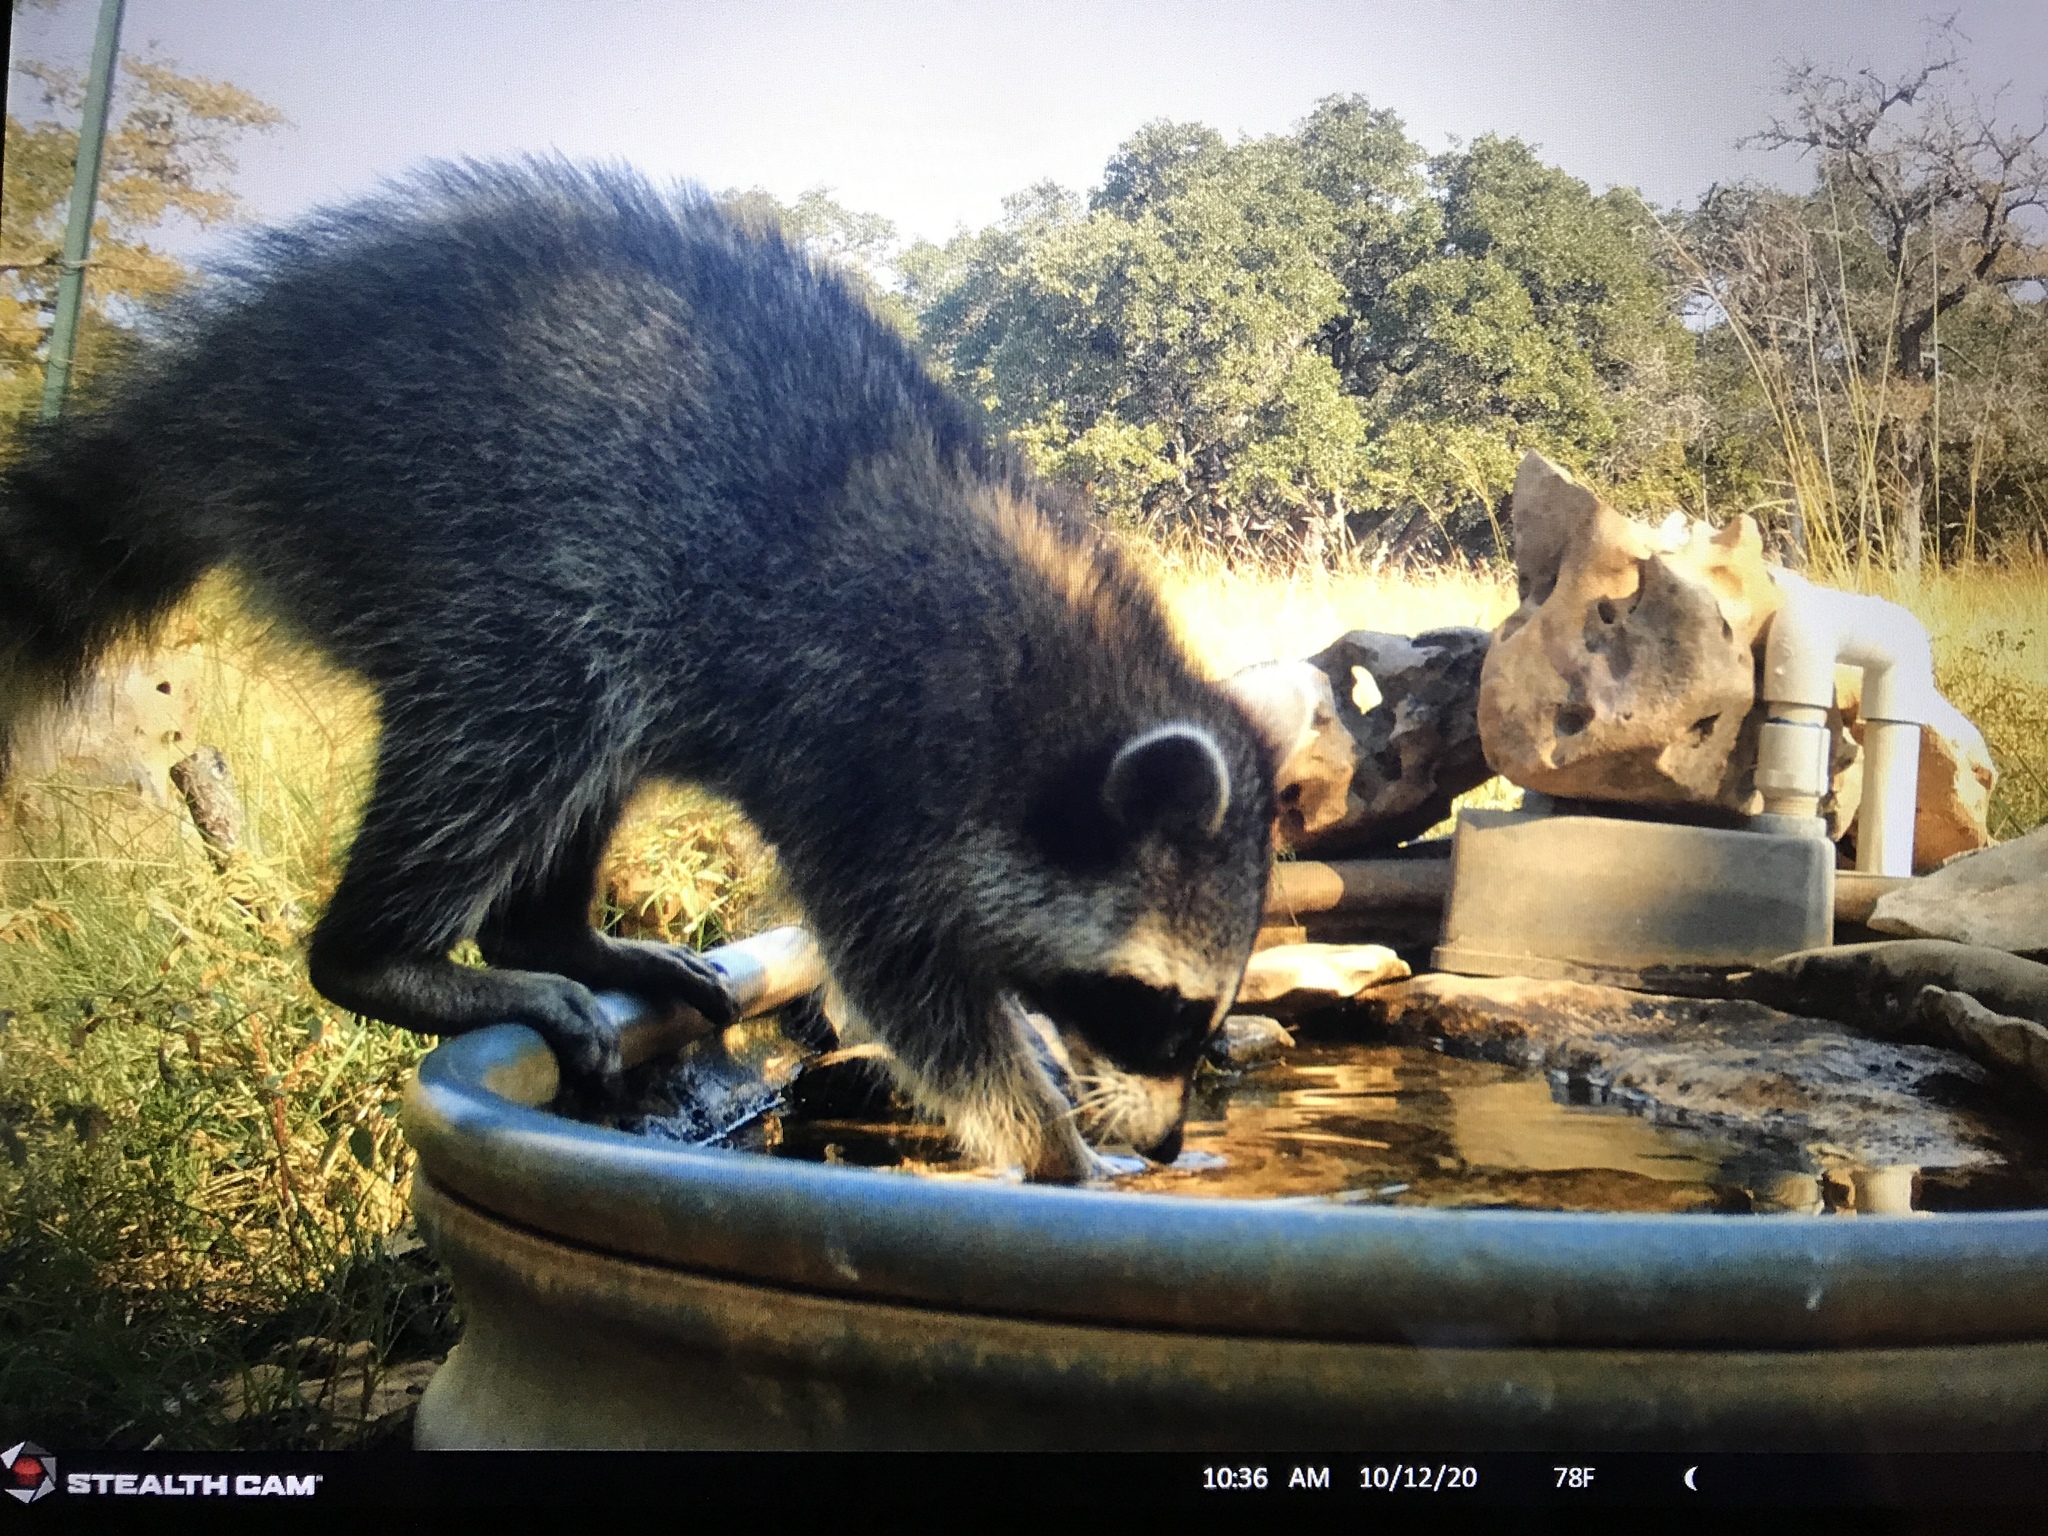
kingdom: Animalia
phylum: Chordata
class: Mammalia
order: Carnivora
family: Procyonidae
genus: Procyon
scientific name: Procyon lotor
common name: Raccoon
